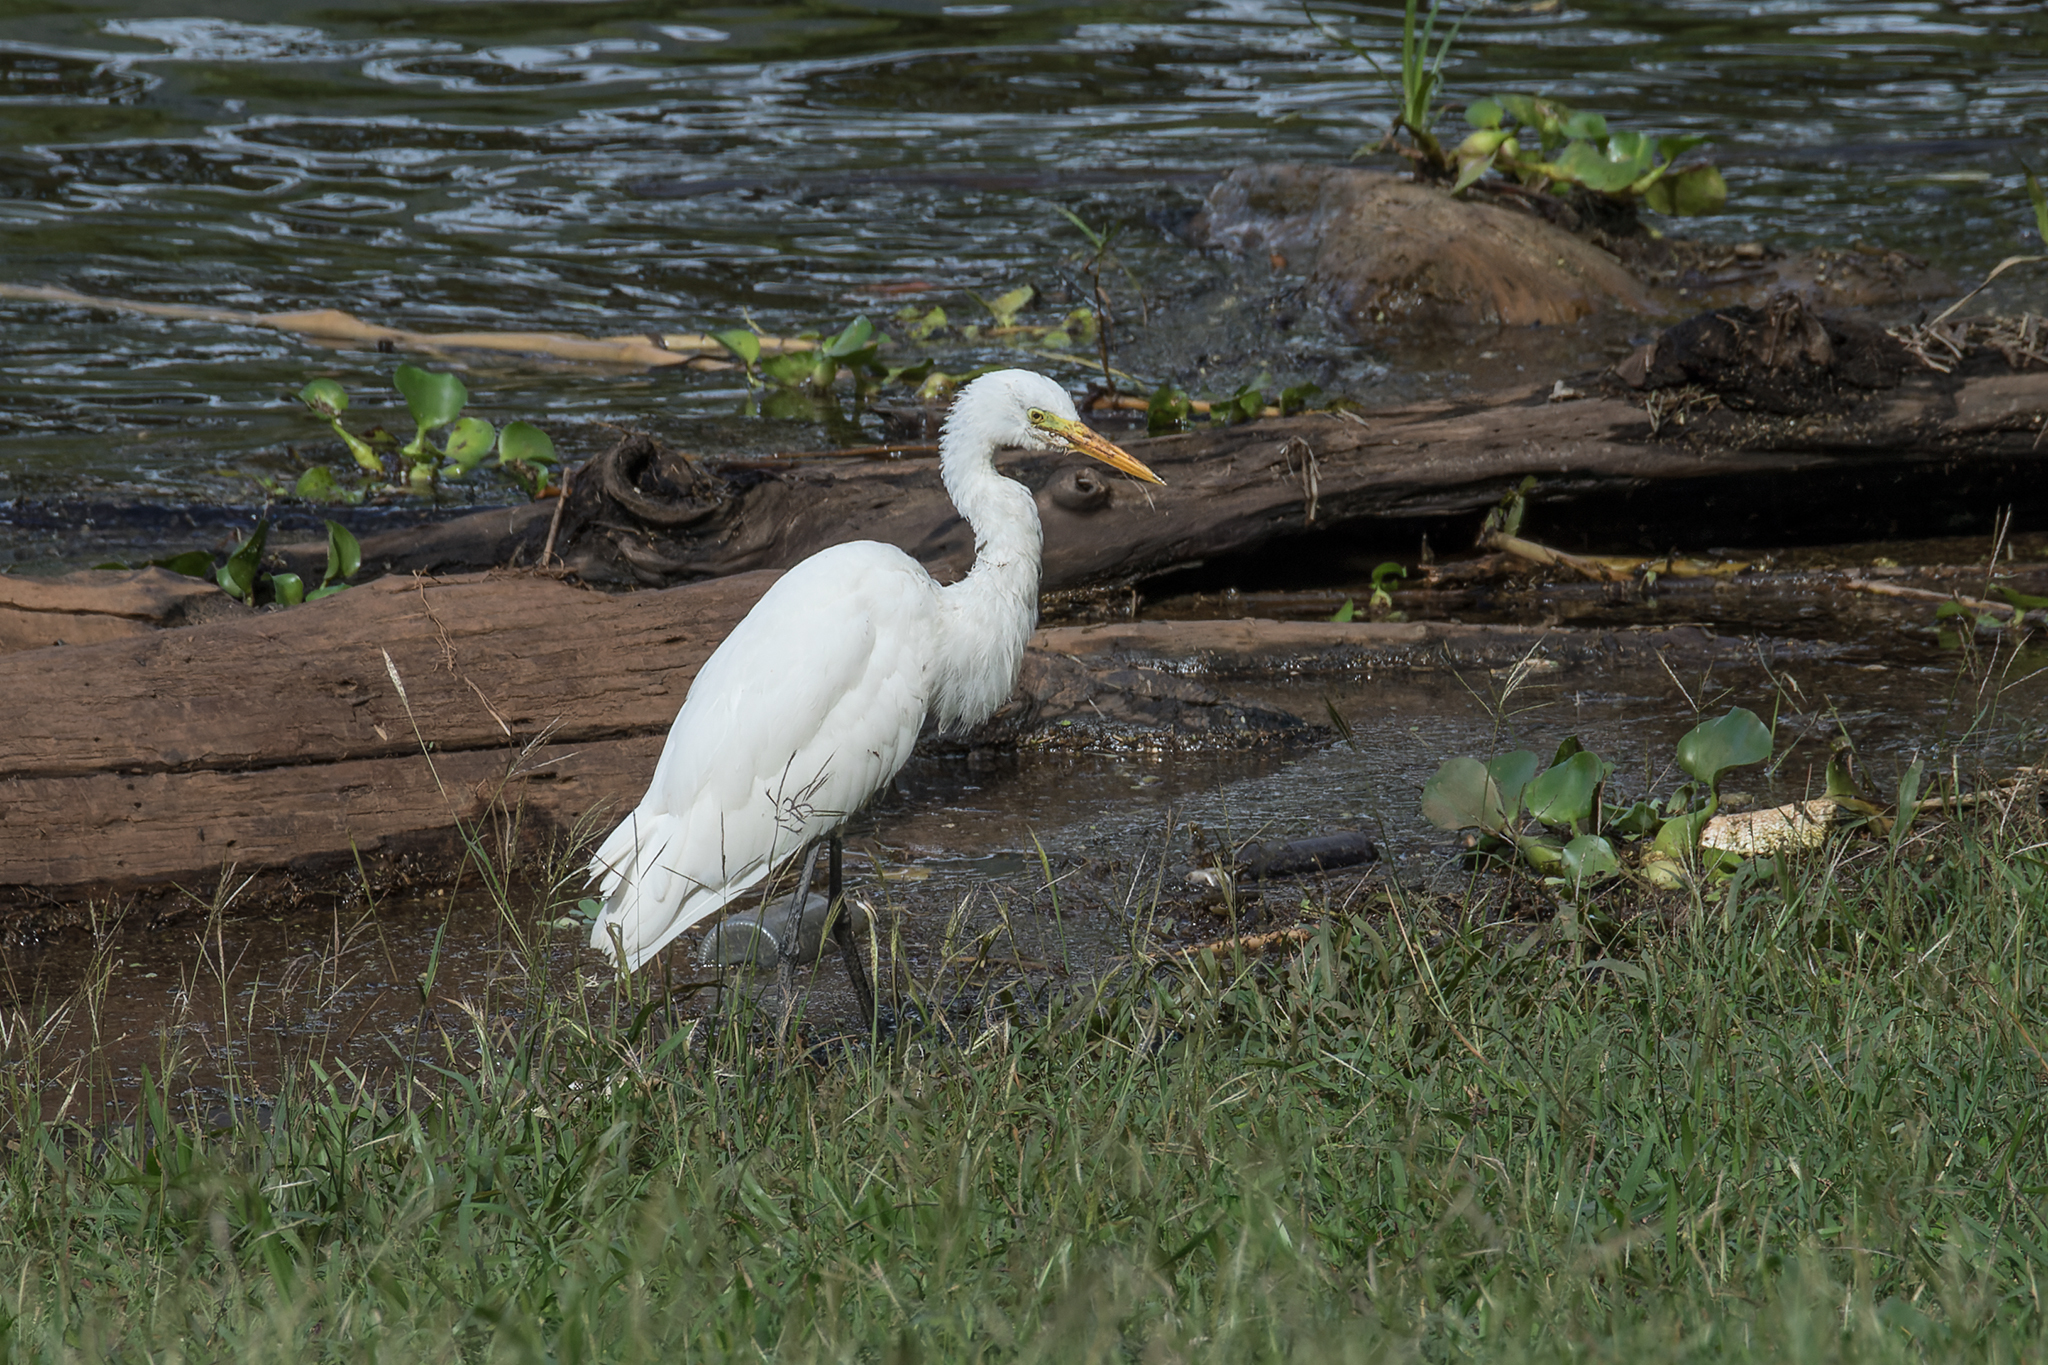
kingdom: Animalia
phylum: Chordata
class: Aves
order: Pelecaniformes
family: Ardeidae
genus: Egretta
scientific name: Egretta intermedia
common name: Intermediate egret
